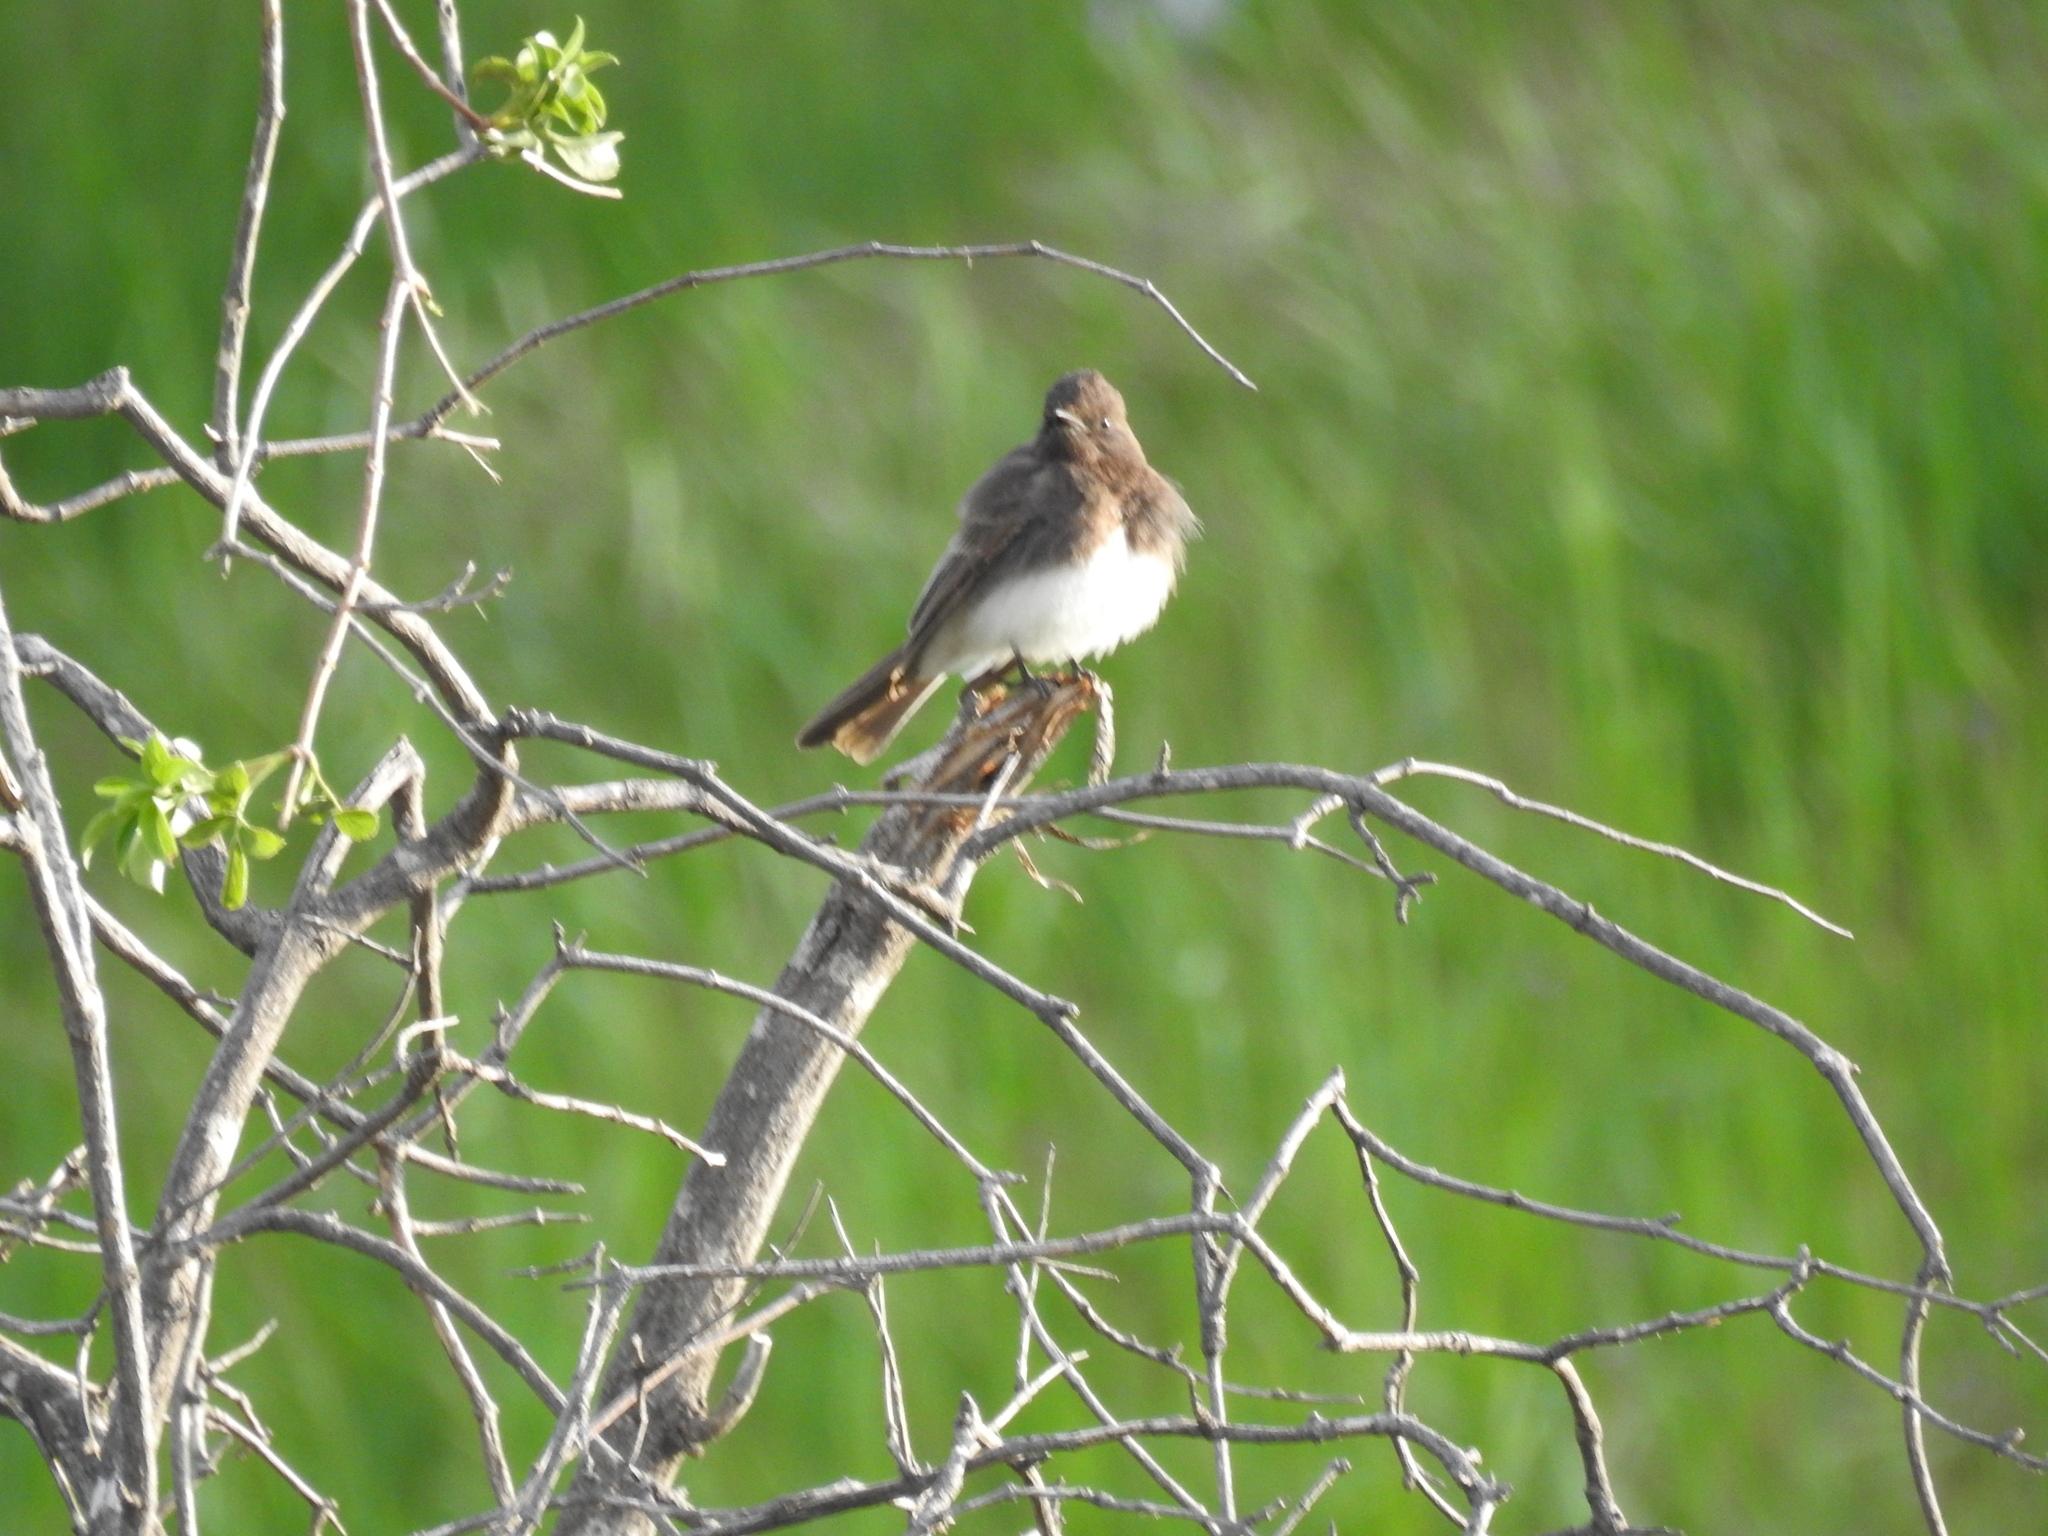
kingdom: Animalia
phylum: Chordata
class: Aves
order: Passeriformes
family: Tyrannidae
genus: Sayornis
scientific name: Sayornis nigricans
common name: Black phoebe
